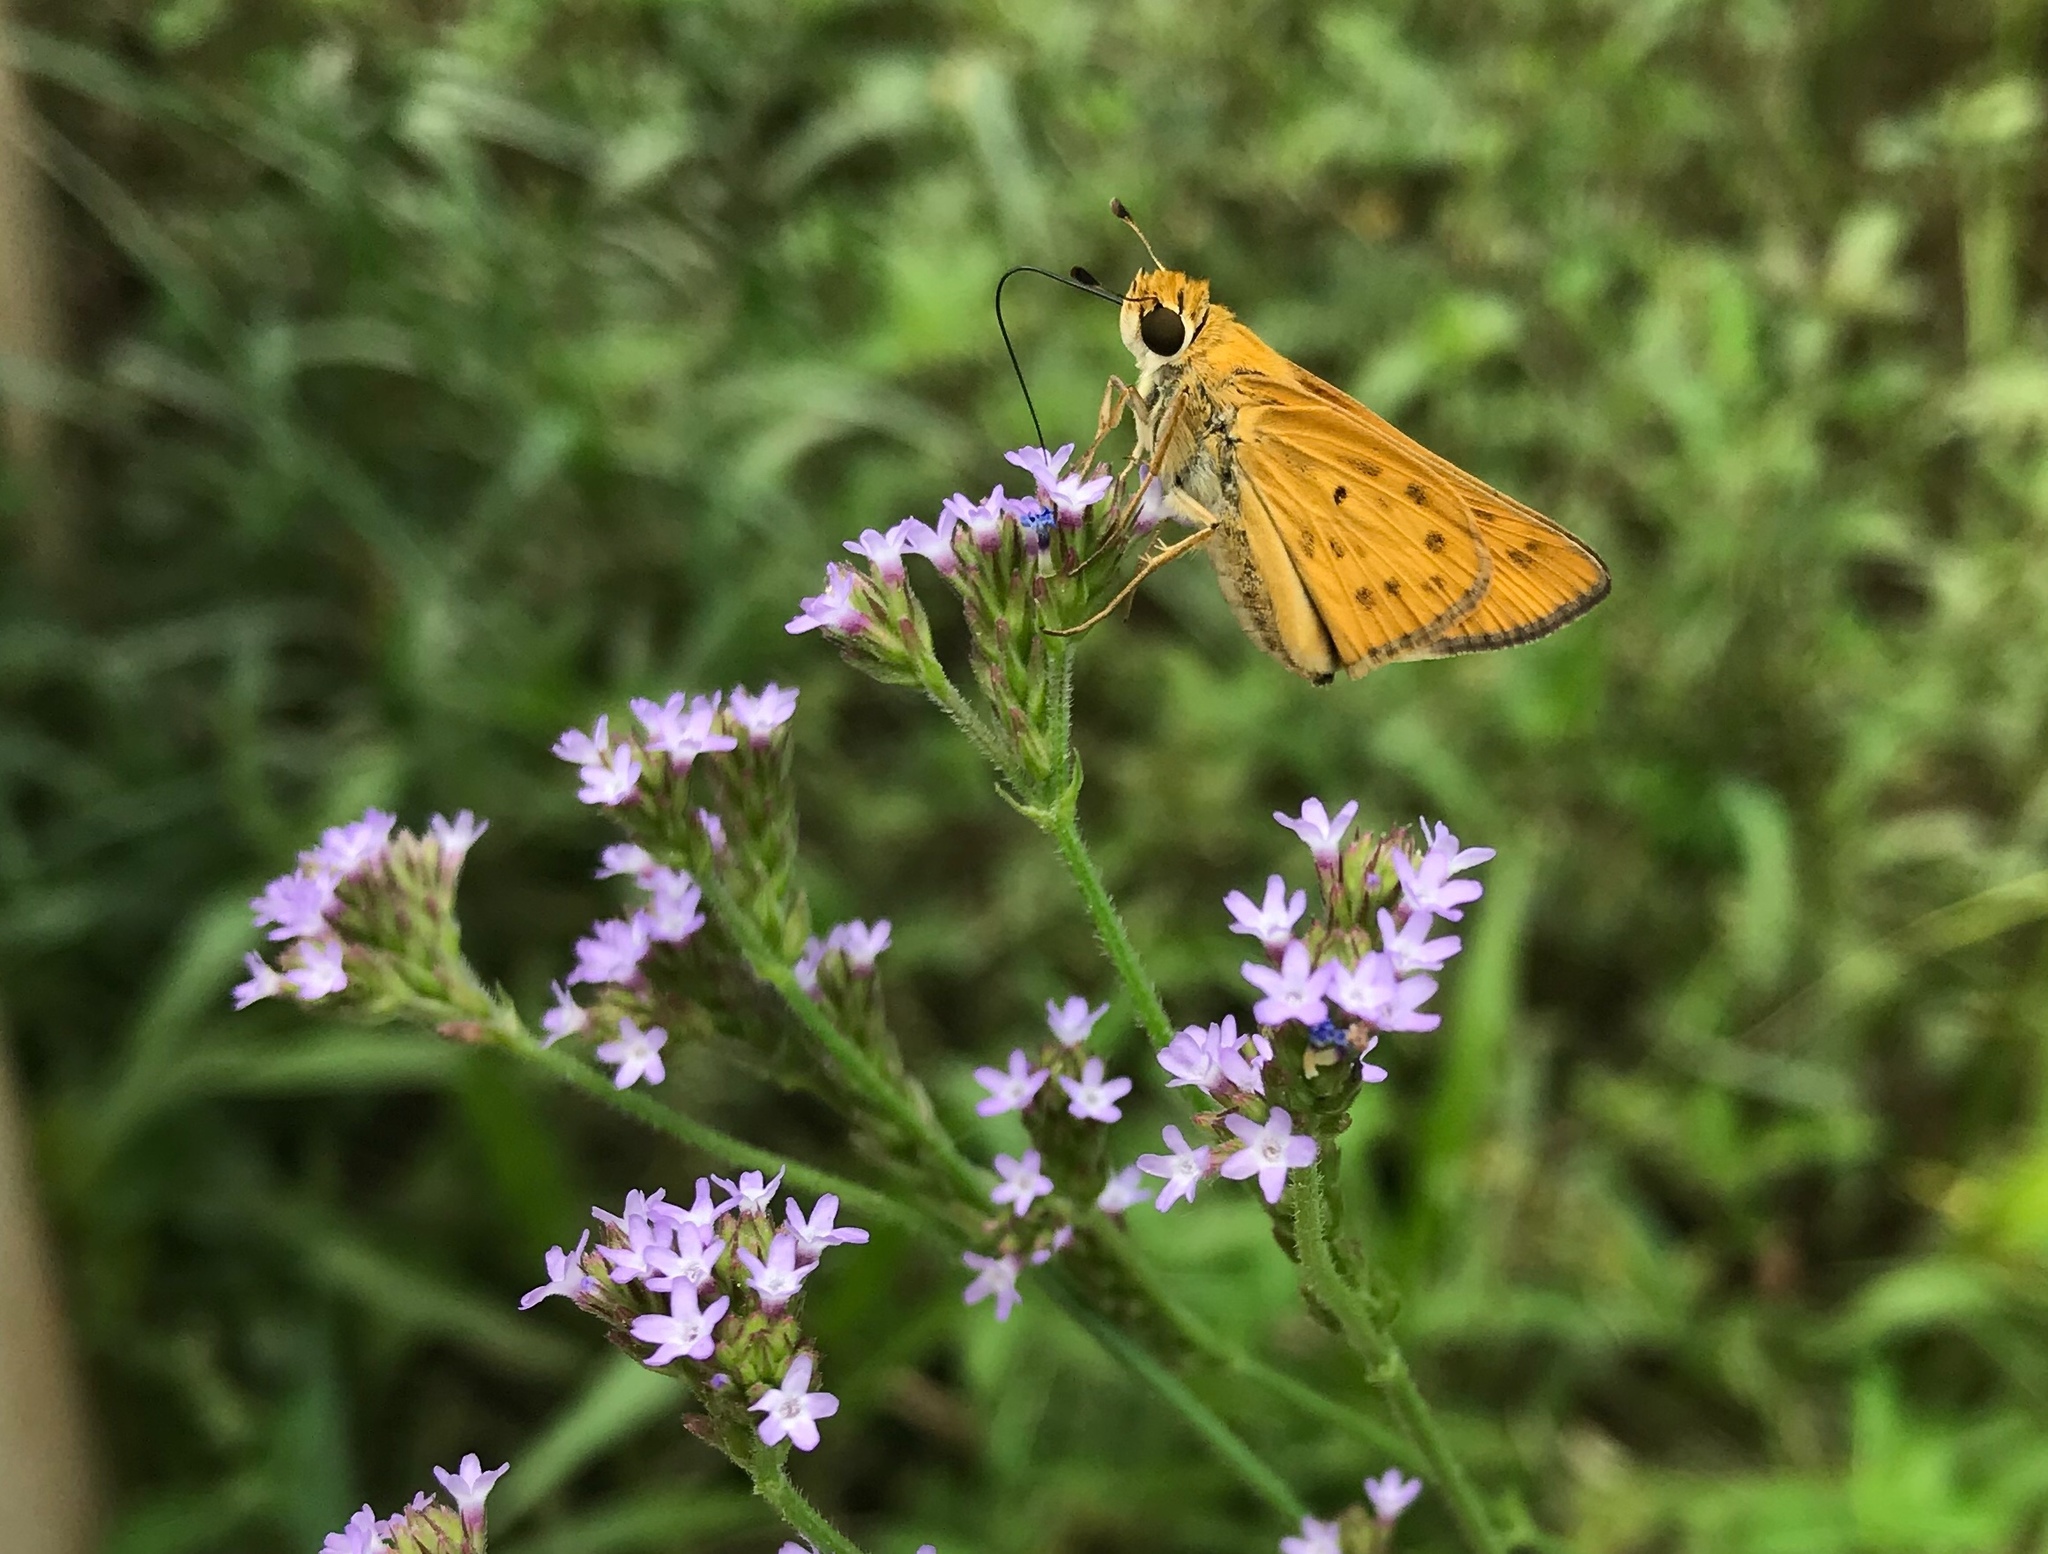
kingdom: Animalia
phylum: Arthropoda
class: Insecta
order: Lepidoptera
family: Hesperiidae
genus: Hylephila
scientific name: Hylephila phyleus
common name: Fiery skipper
